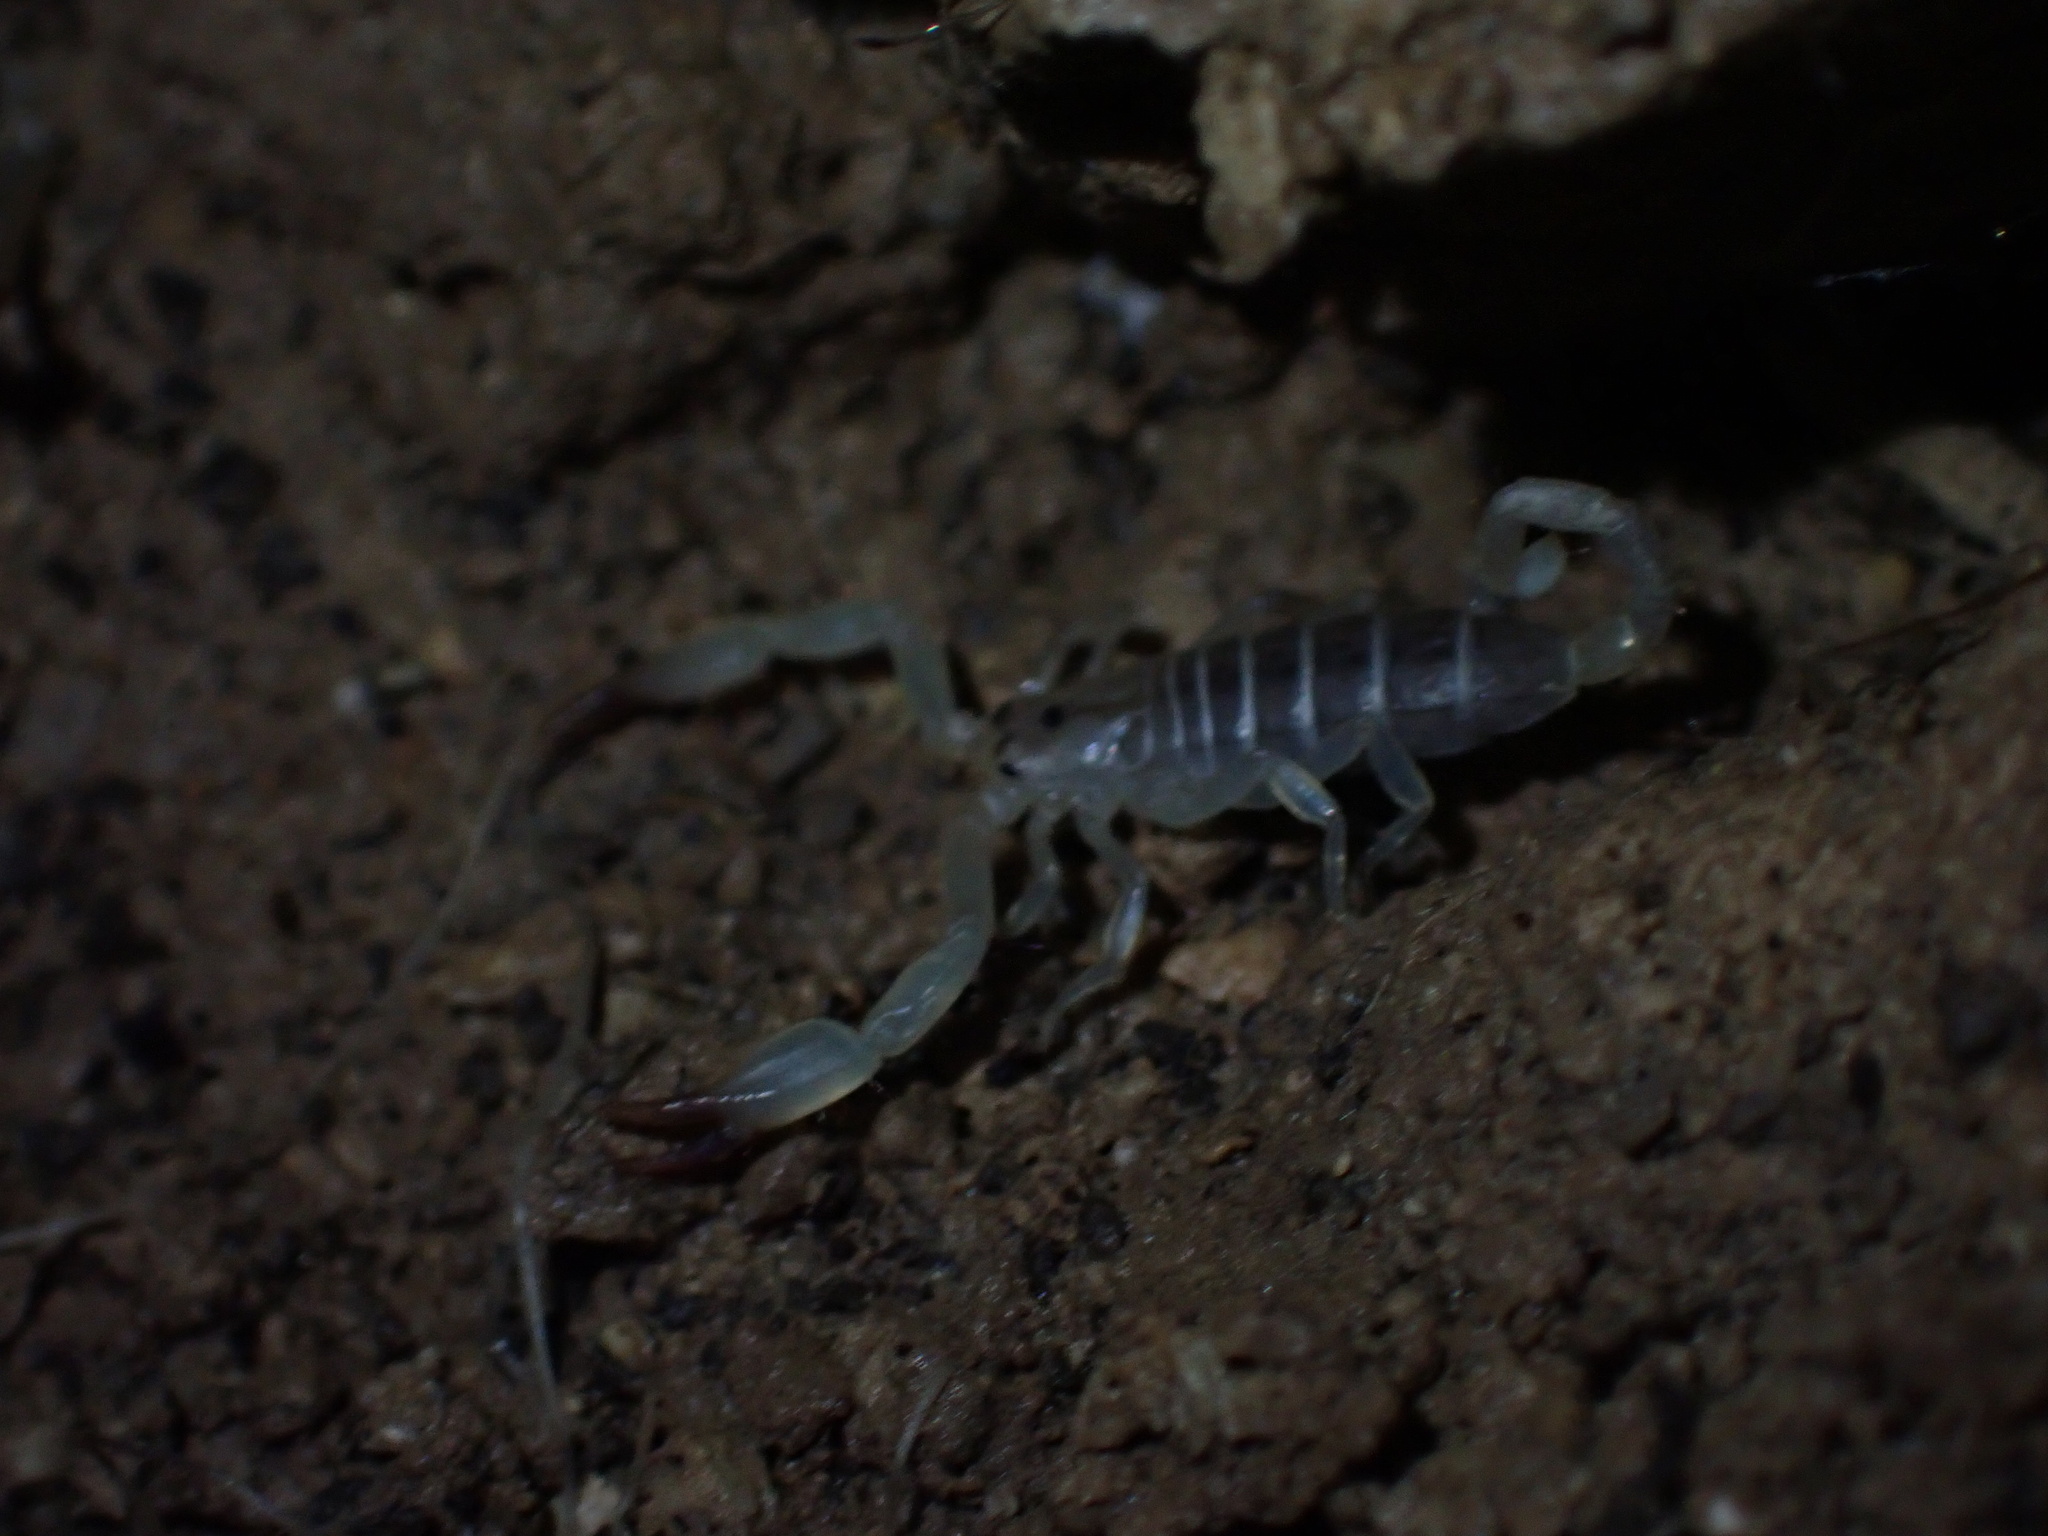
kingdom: Animalia
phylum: Arthropoda
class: Arachnida
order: Scorpiones
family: Hemiscorpiidae
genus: Hemiscorpius
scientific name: Hemiscorpius lepturus
